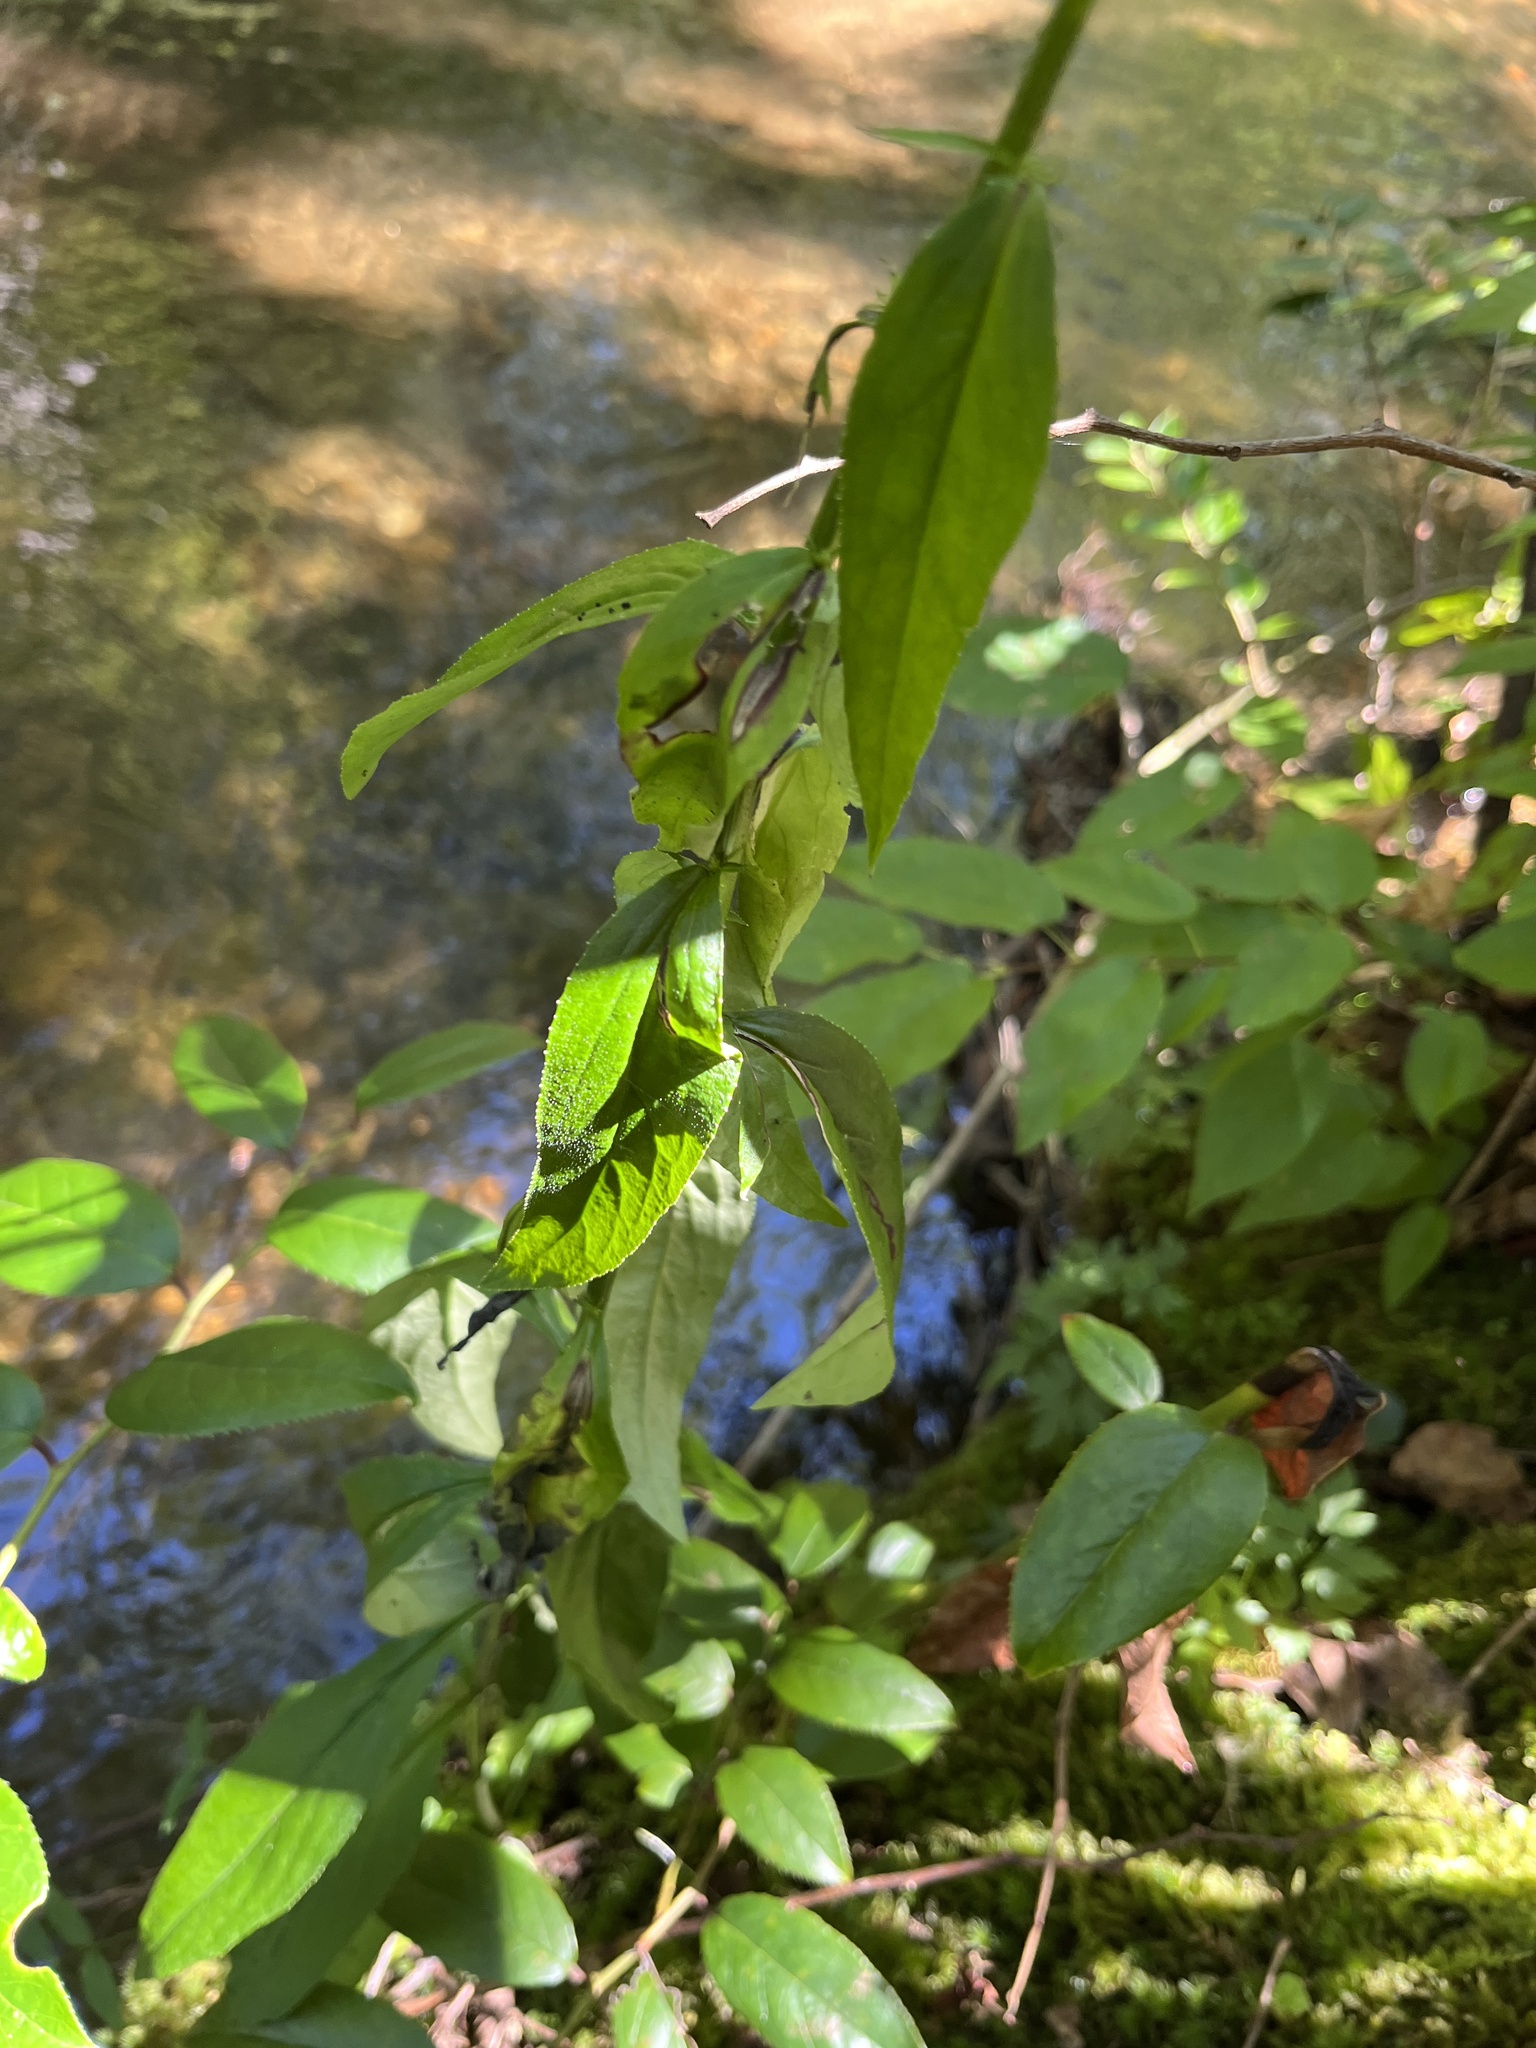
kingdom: Plantae
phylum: Tracheophyta
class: Magnoliopsida
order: Asterales
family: Campanulaceae
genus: Lobelia
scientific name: Lobelia amoena
